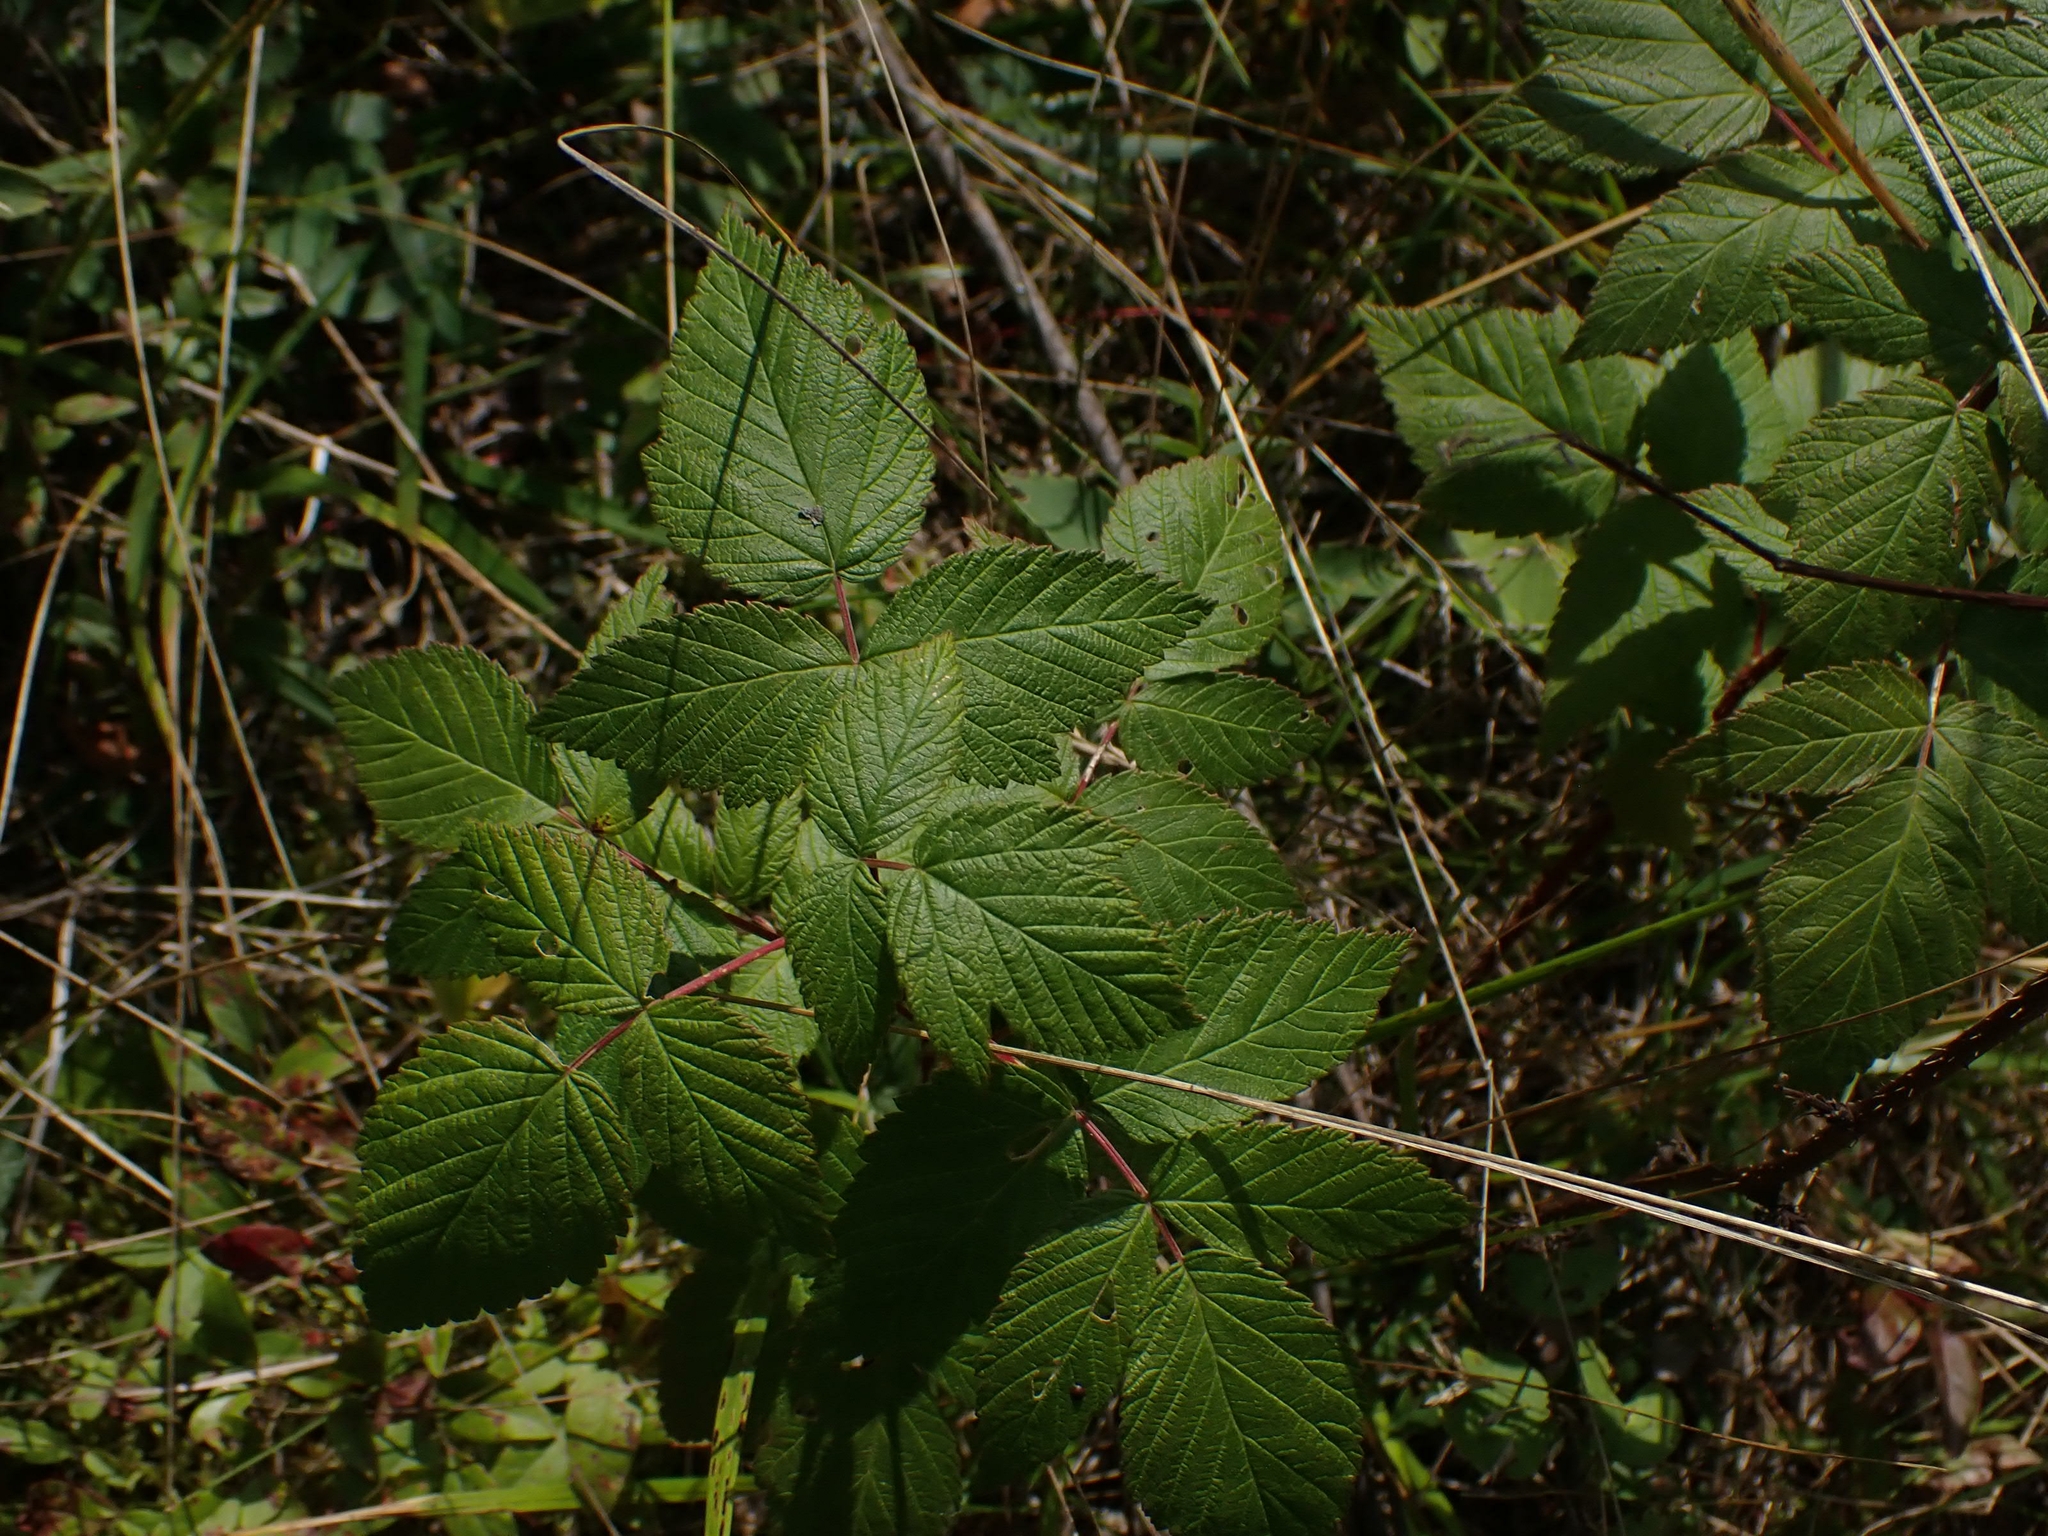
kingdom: Plantae
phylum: Tracheophyta
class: Magnoliopsida
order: Rosales
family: Rosaceae
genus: Rubus
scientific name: Rubus idaeus
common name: Raspberry
